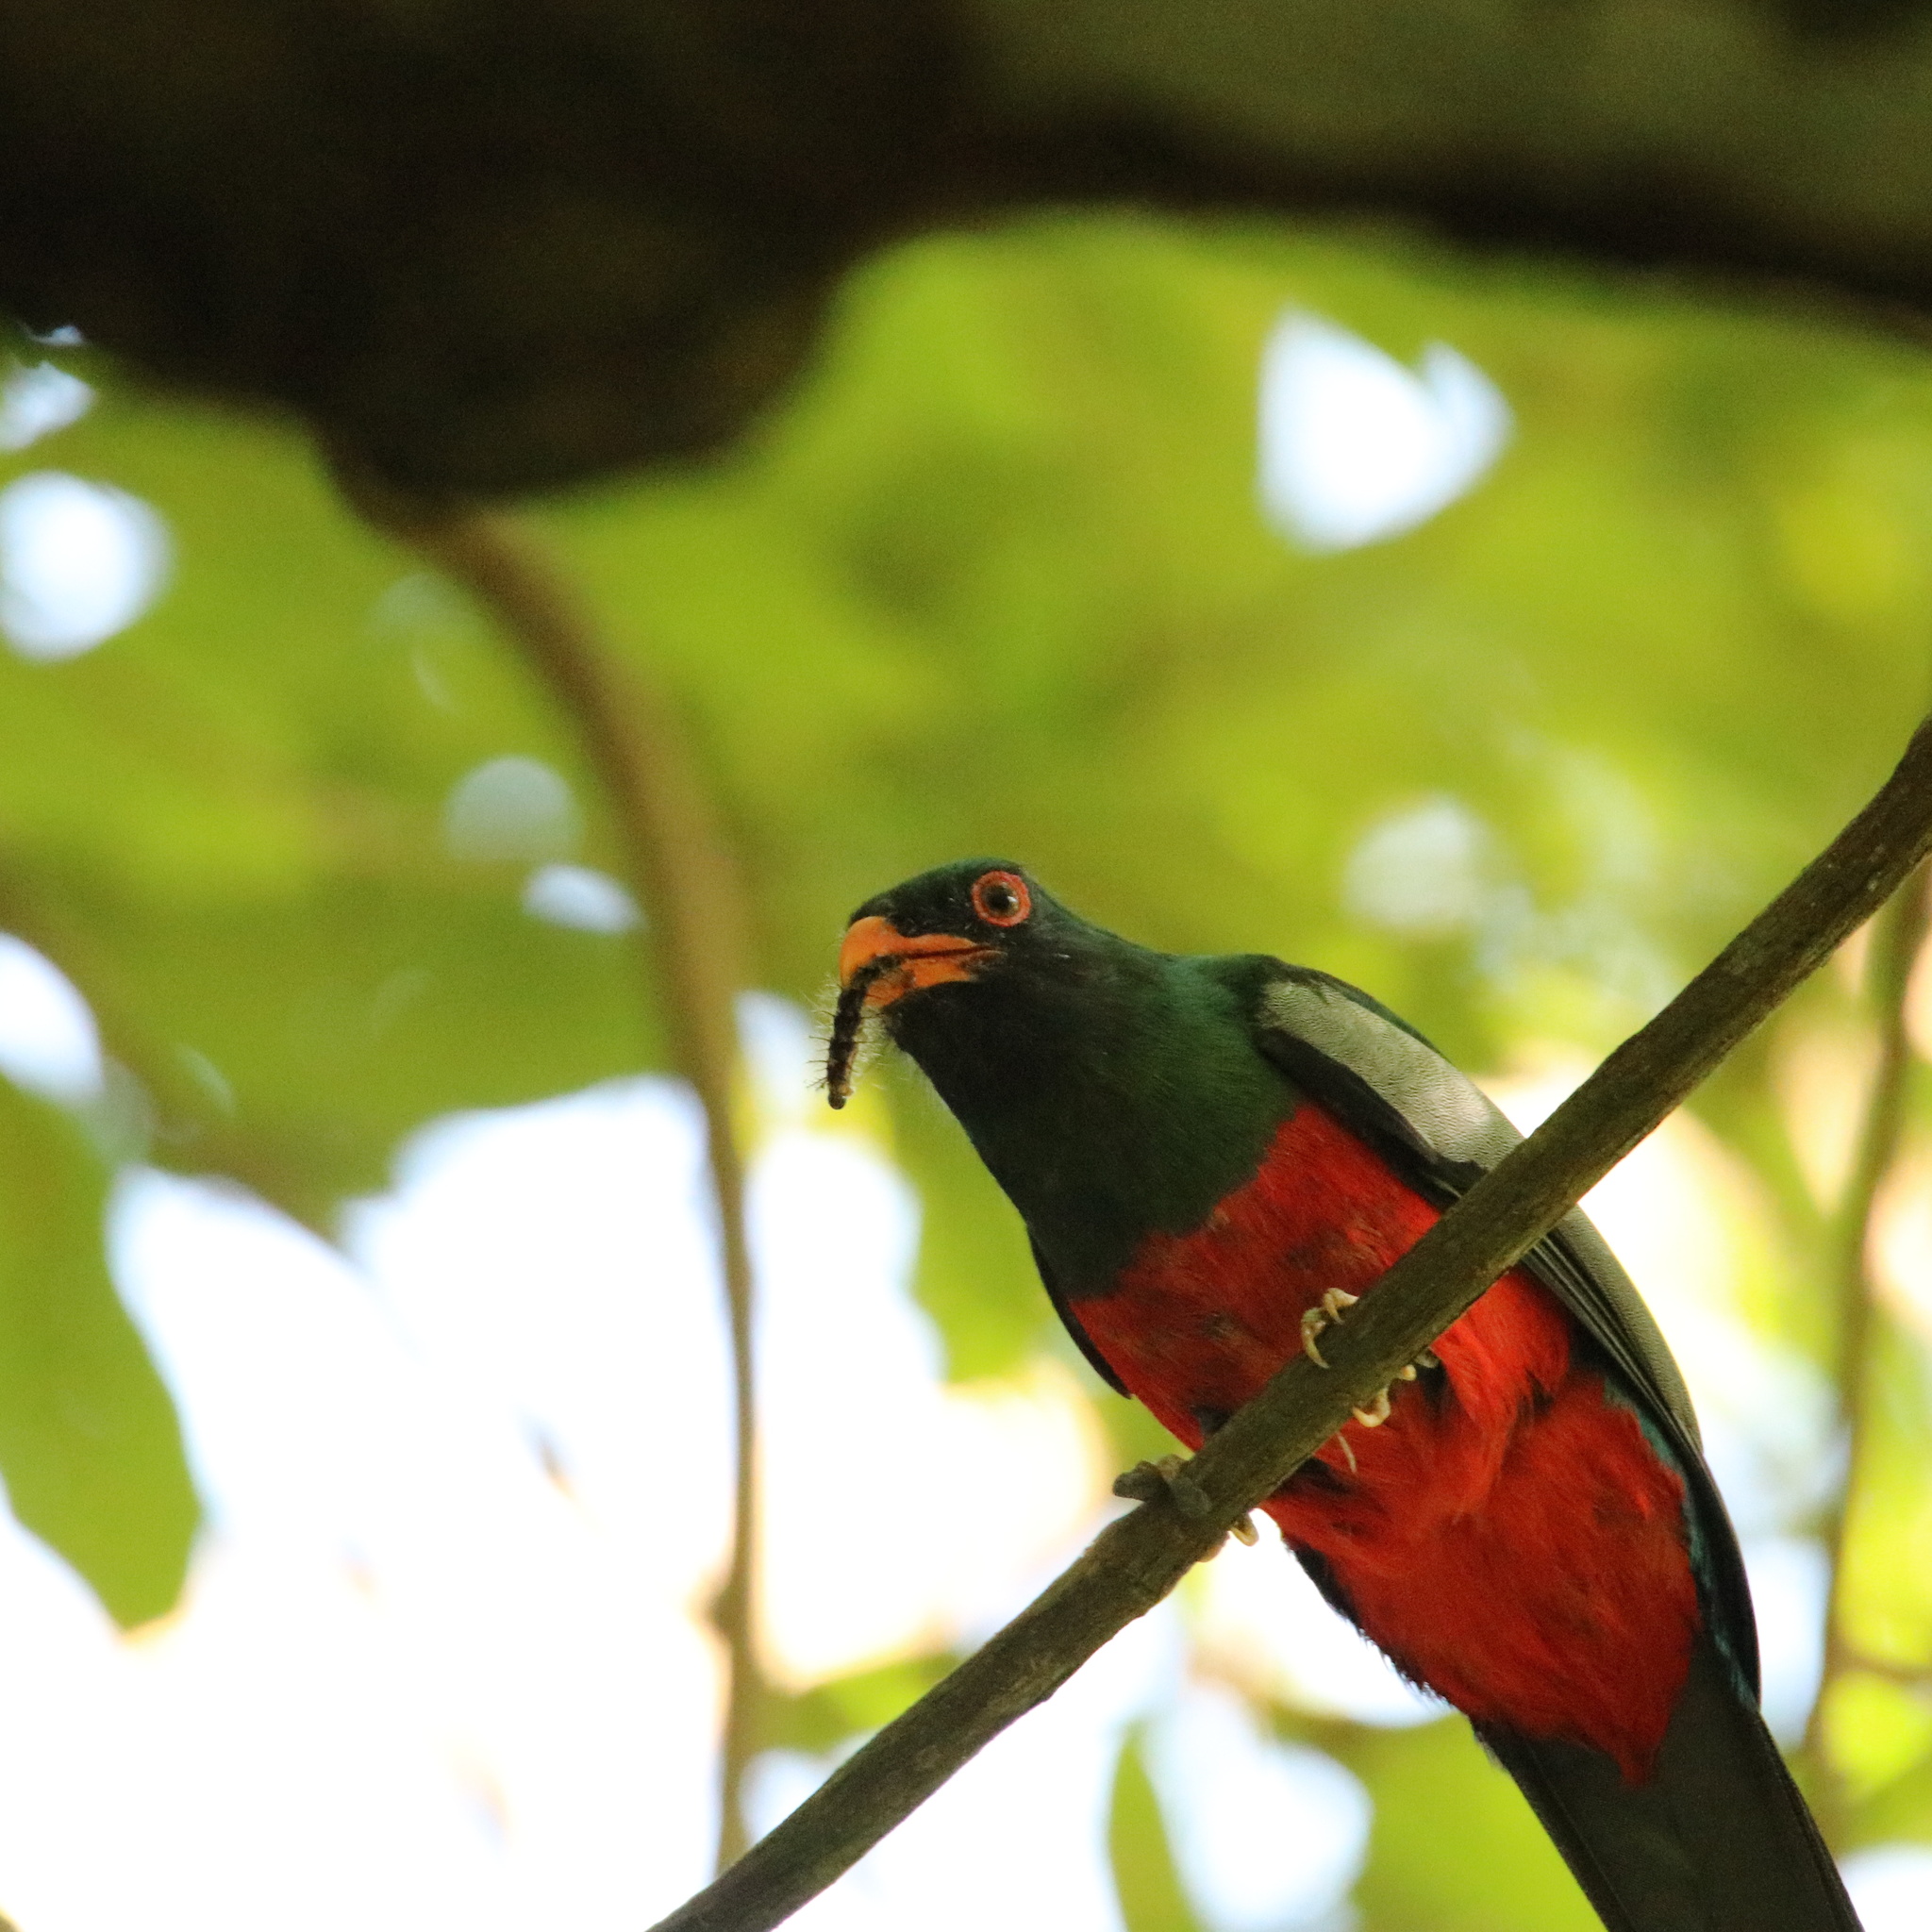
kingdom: Animalia
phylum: Chordata
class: Aves
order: Trogoniformes
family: Trogonidae
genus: Trogon
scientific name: Trogon massena
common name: Slaty-tailed trogon
